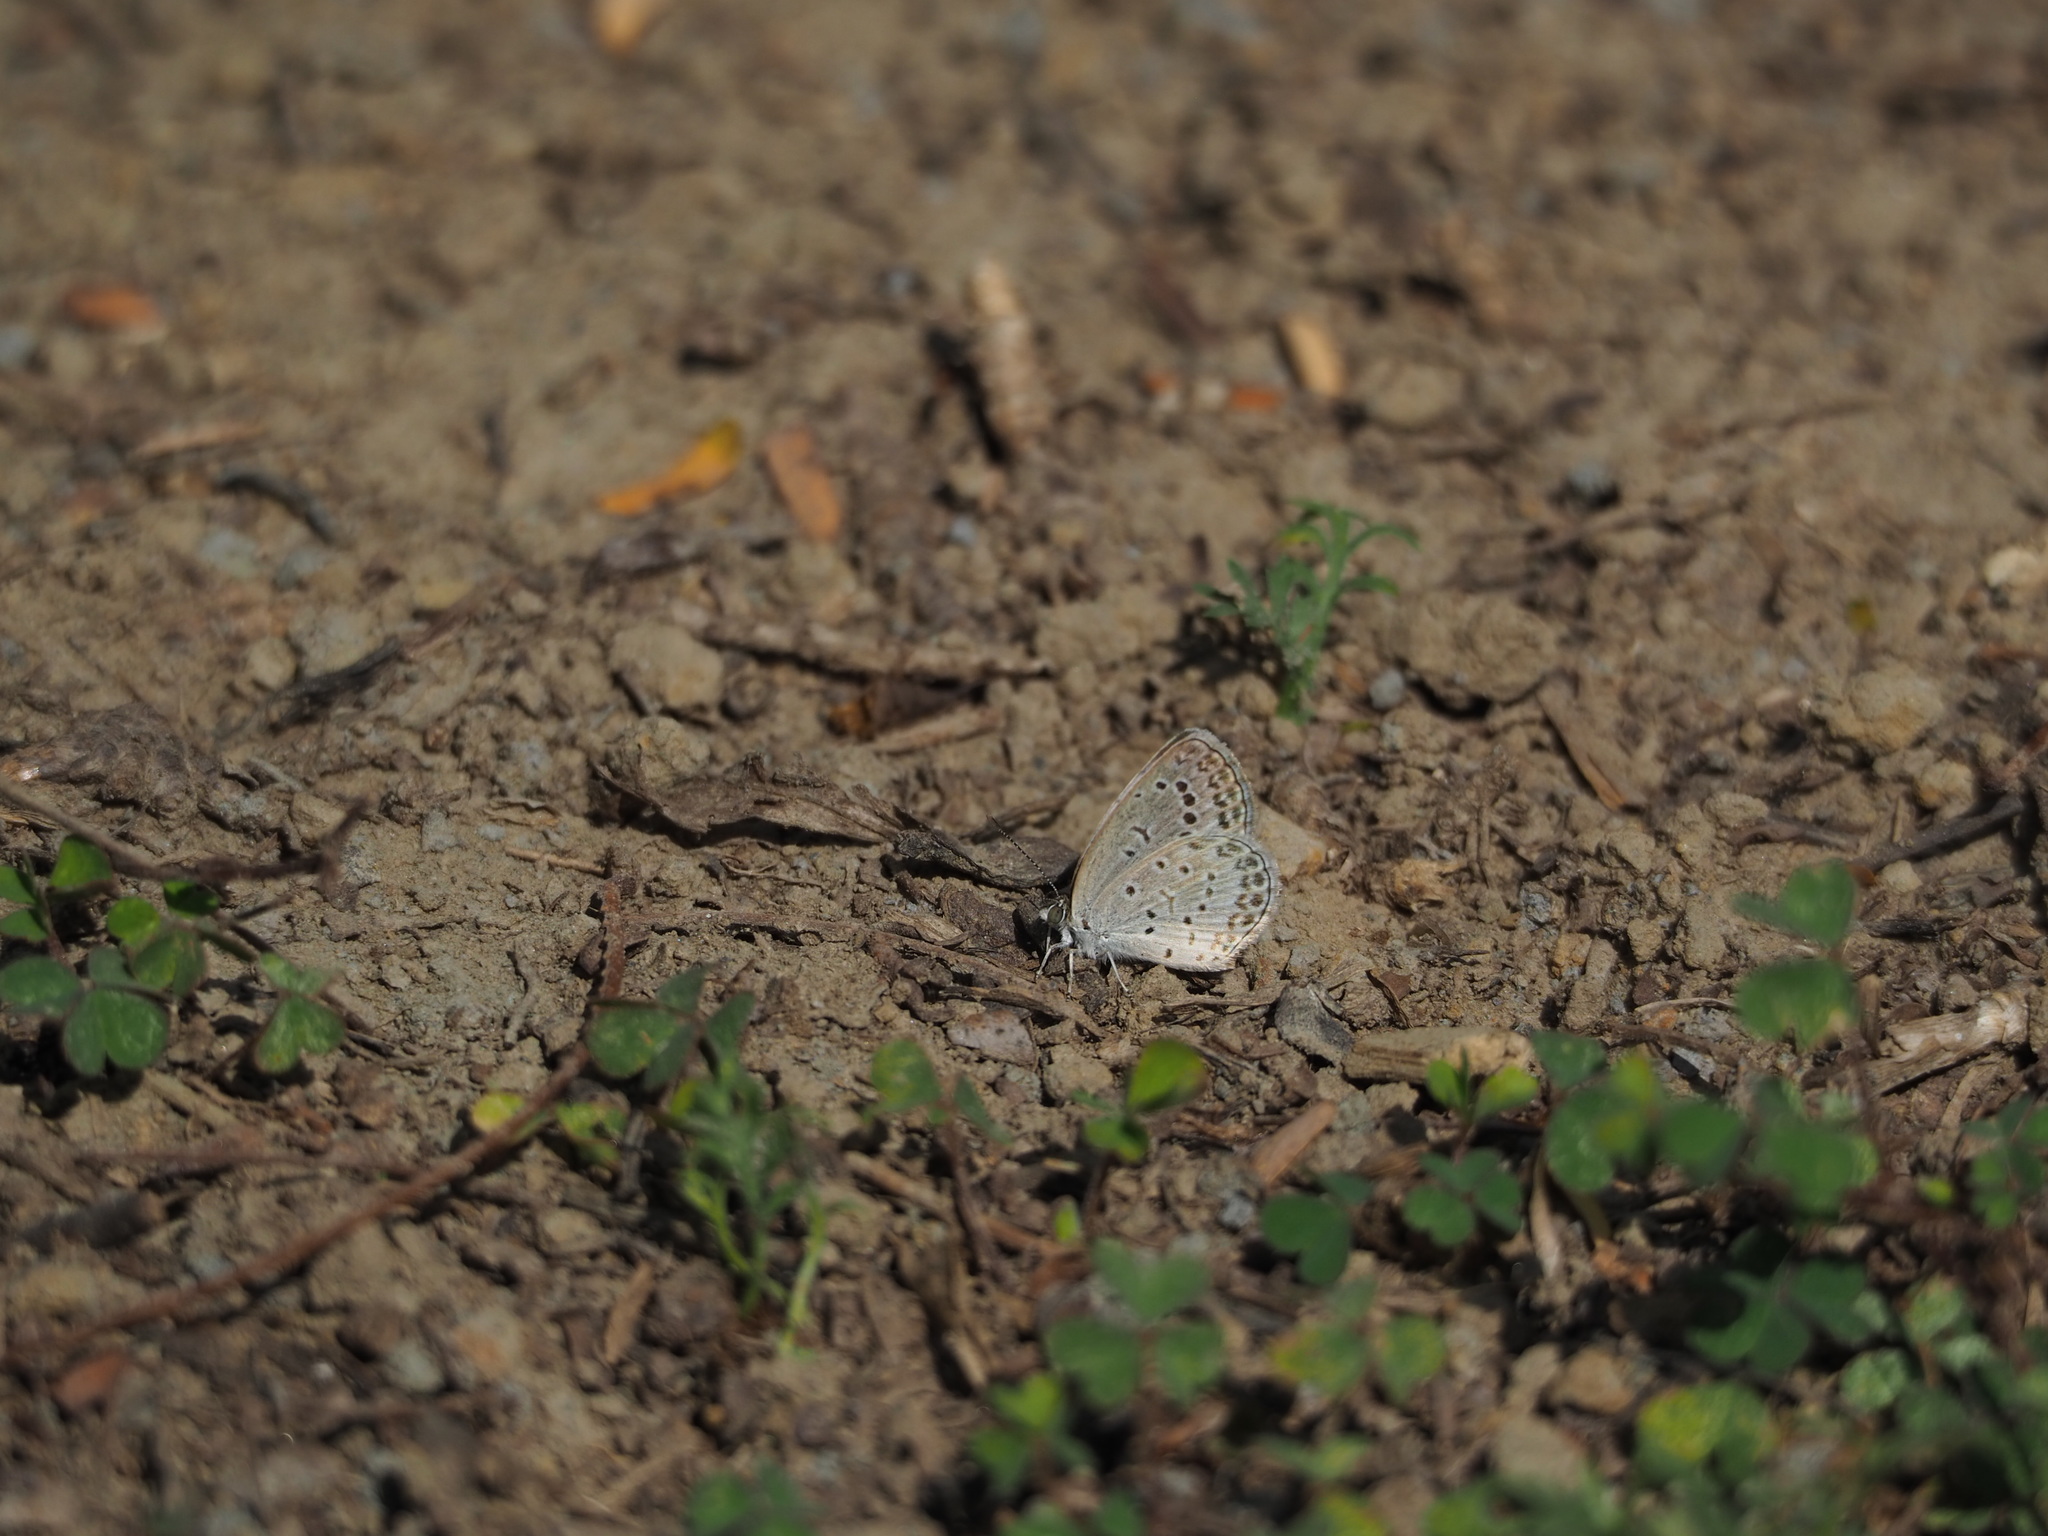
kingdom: Animalia
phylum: Arthropoda
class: Insecta
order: Lepidoptera
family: Lycaenidae
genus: Pseudozizeeria
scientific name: Pseudozizeeria maha
